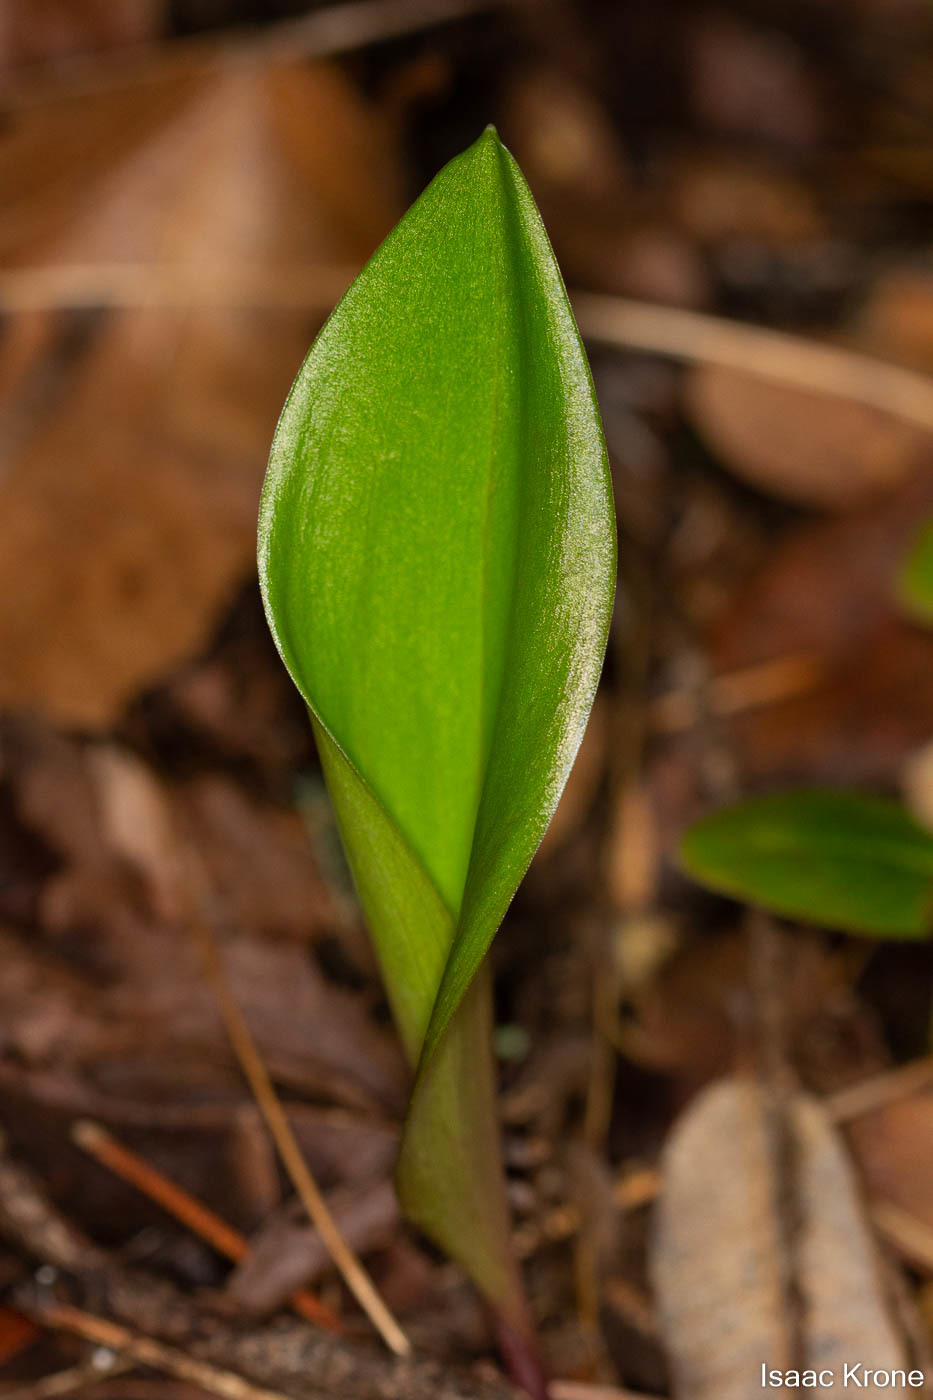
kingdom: Plantae
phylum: Tracheophyta
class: Liliopsida
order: Liliales
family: Liliaceae
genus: Fritillaria
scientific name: Fritillaria affinis
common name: Ojai fritillary
